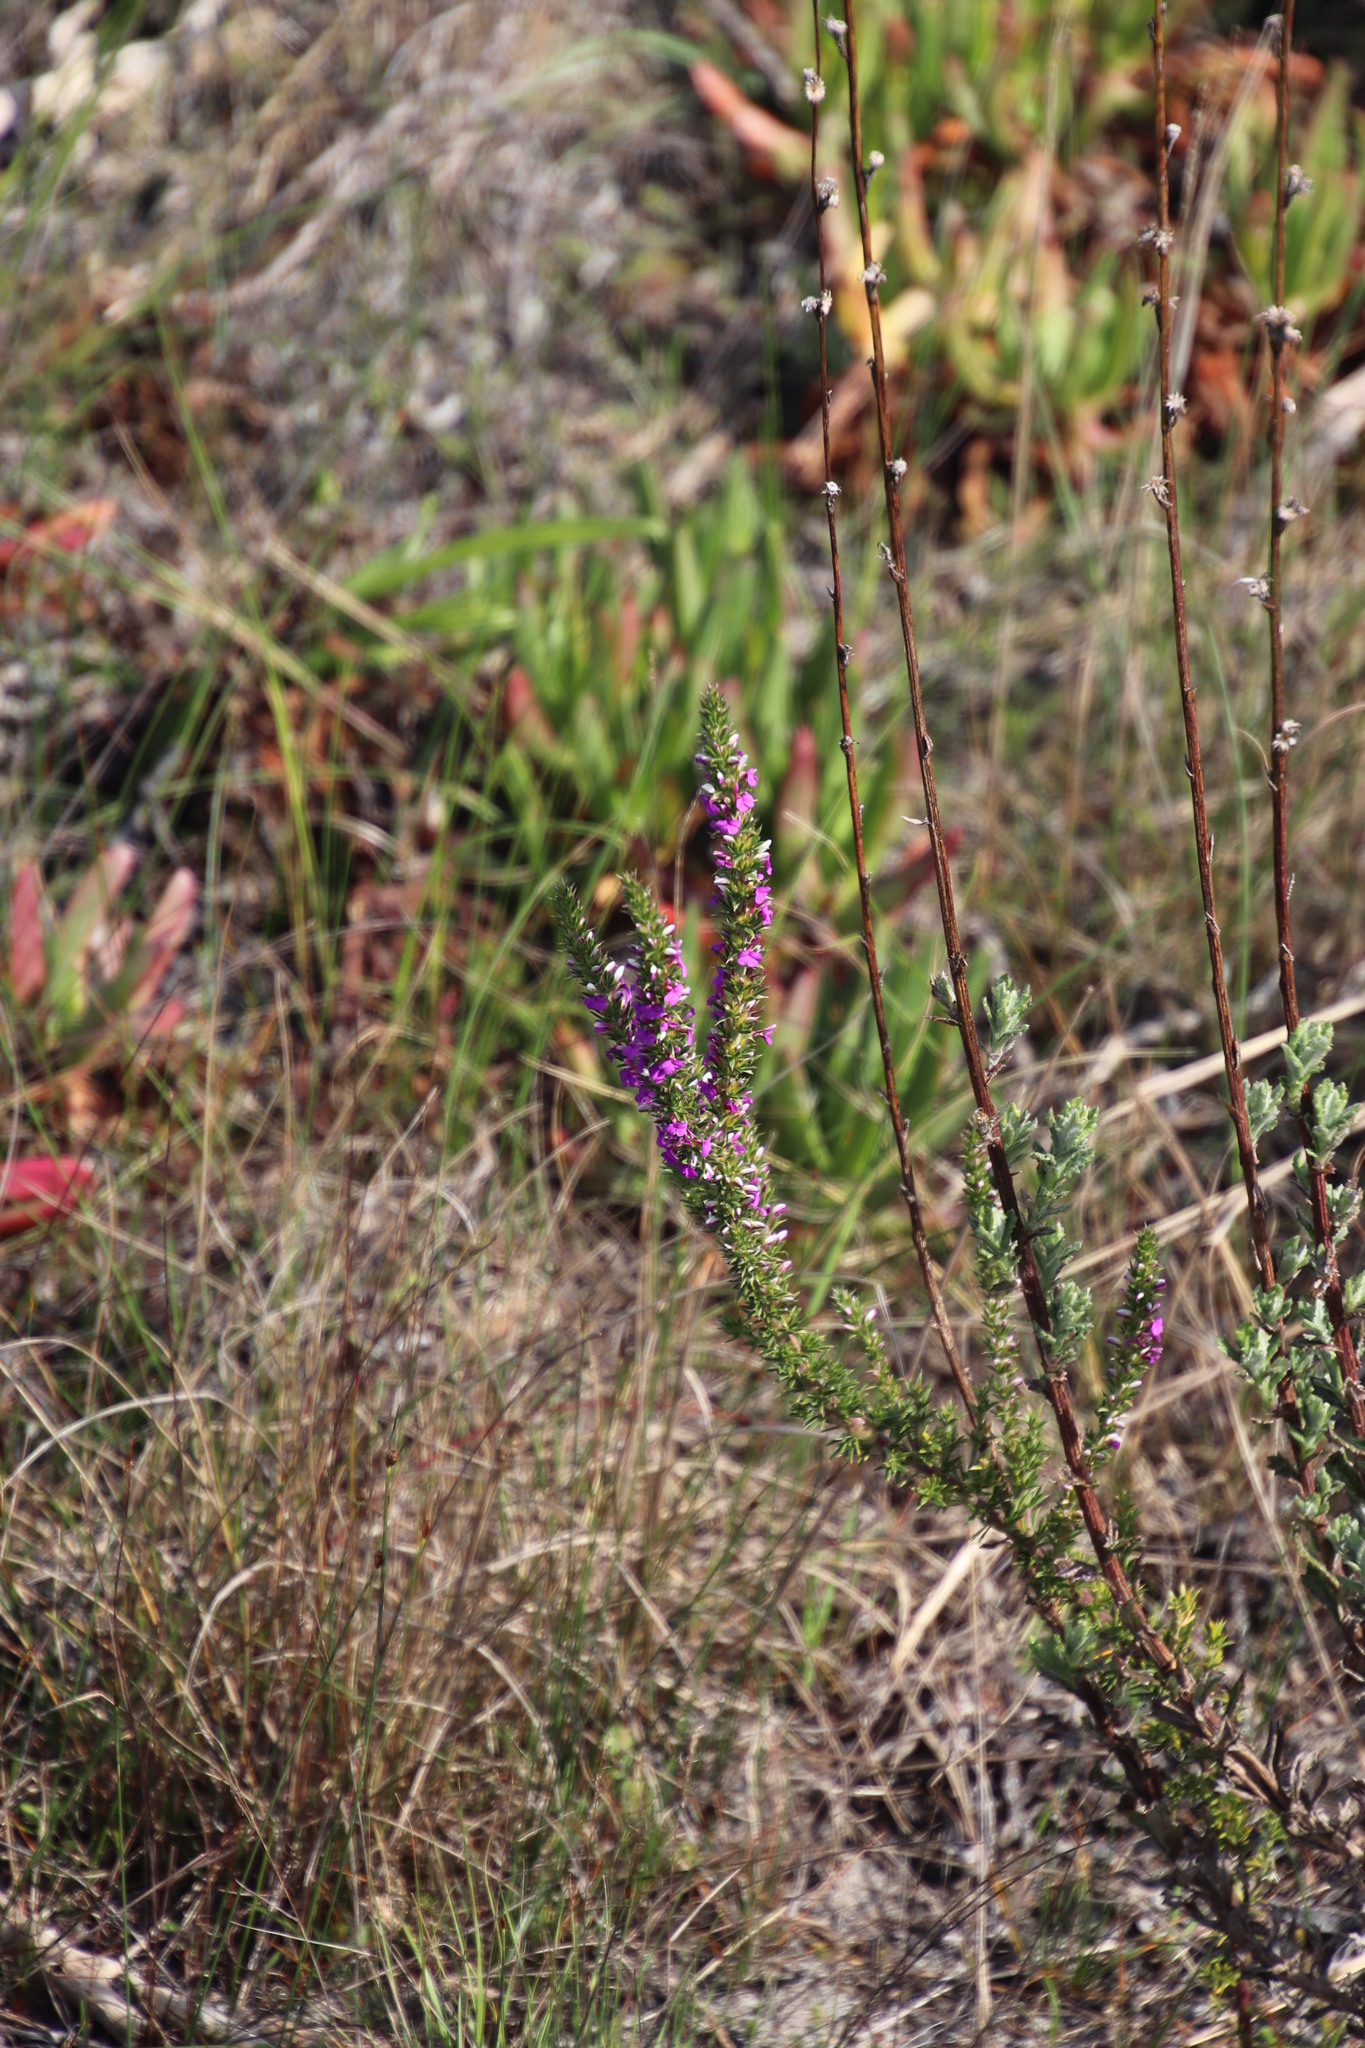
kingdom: Plantae
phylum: Tracheophyta
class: Magnoliopsida
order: Fabales
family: Polygalaceae
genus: Muraltia
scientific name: Muraltia heisteria
